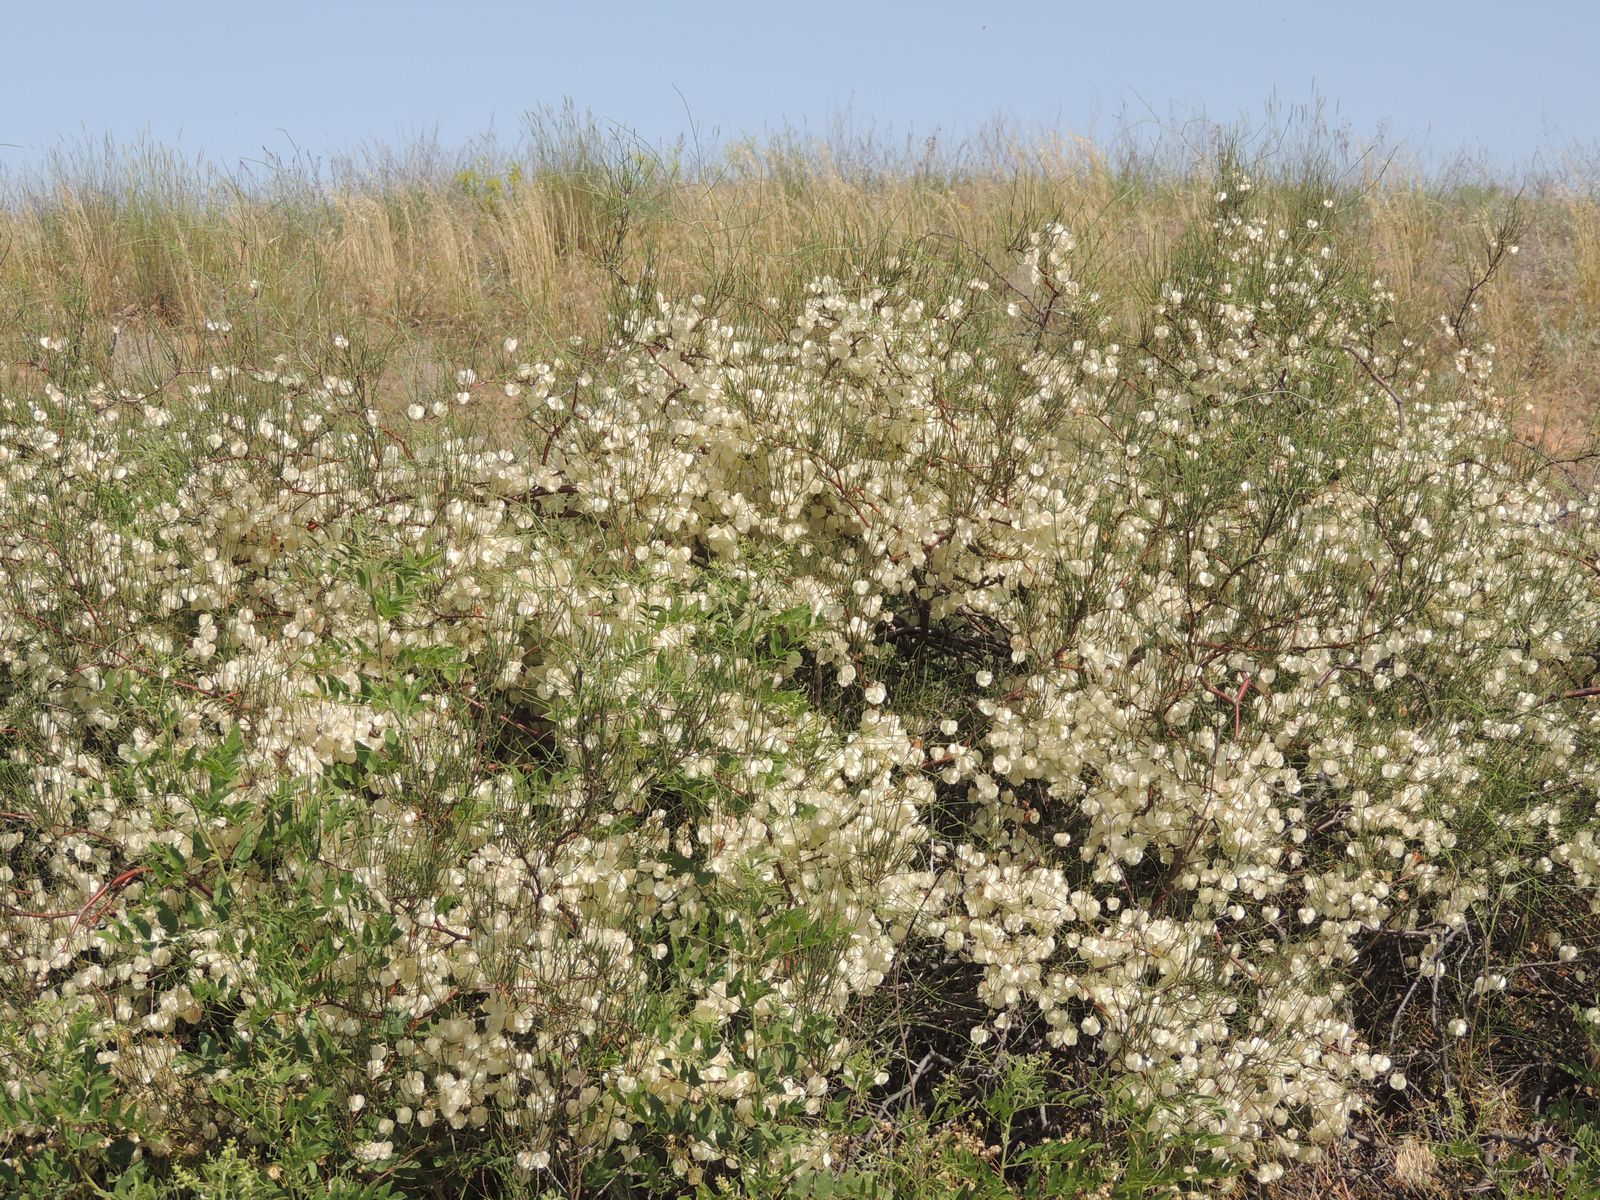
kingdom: Plantae
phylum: Tracheophyta
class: Magnoliopsida
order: Caryophyllales
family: Polygonaceae
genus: Calligonum
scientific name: Calligonum aphyllum
